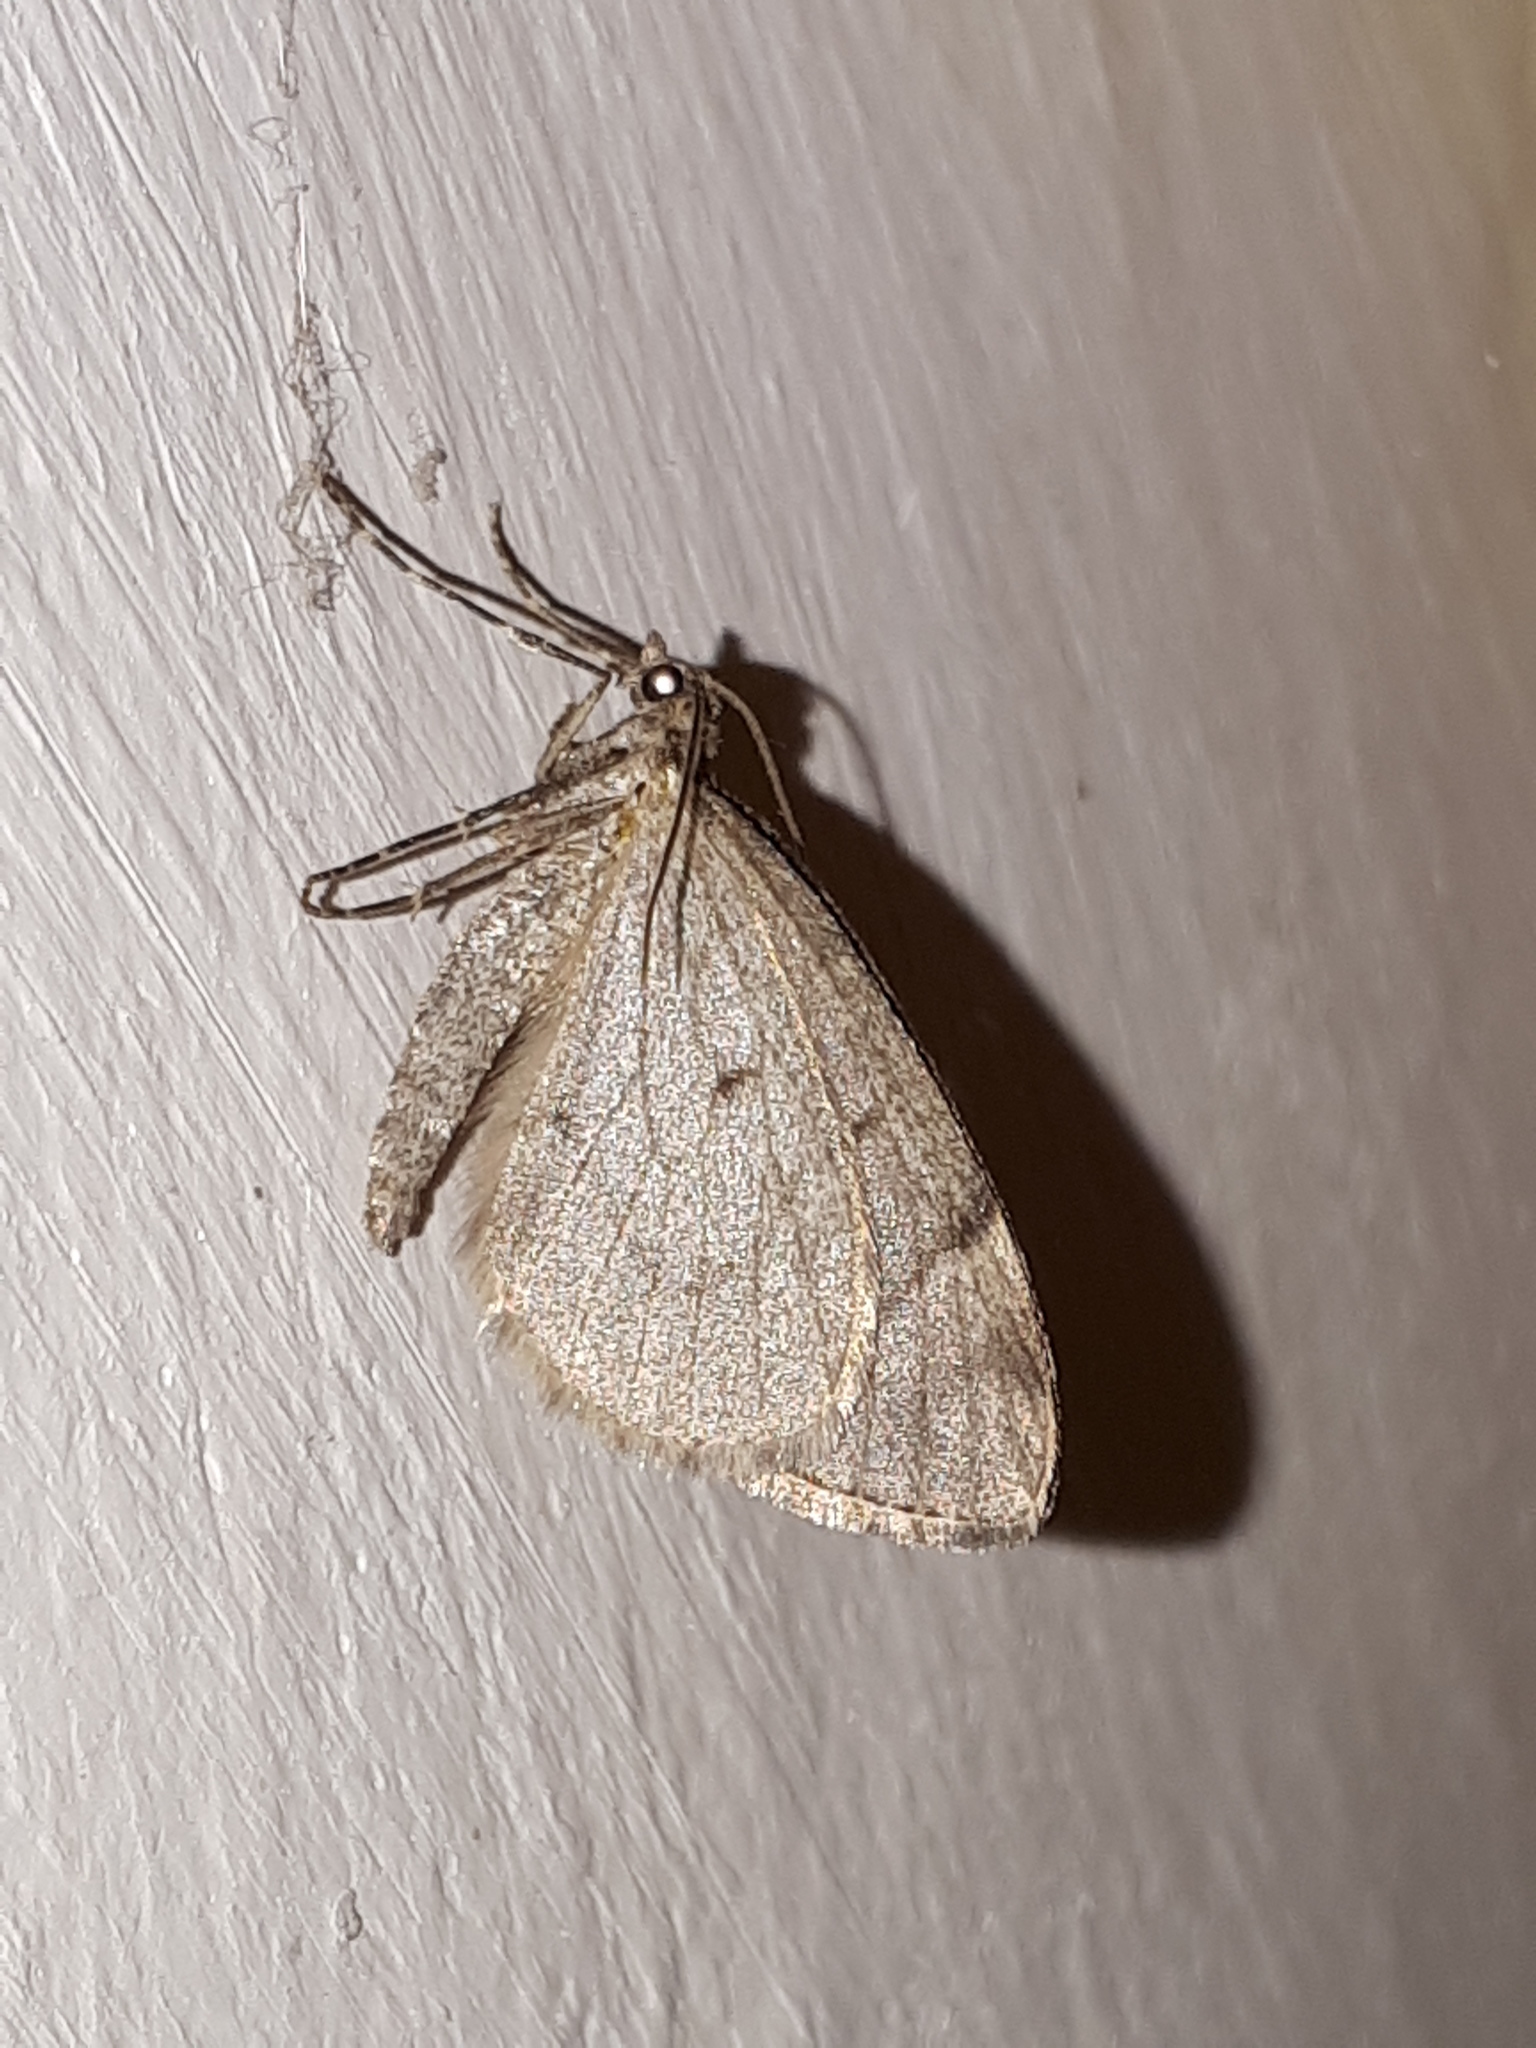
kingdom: Animalia
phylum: Arthropoda
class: Insecta
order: Lepidoptera
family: Geometridae
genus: Thera
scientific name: Thera juniperata
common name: Juniper carpet
